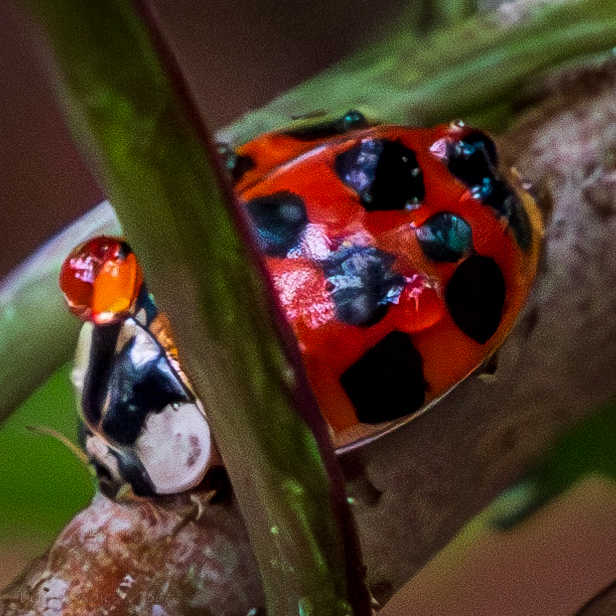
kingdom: Animalia
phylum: Arthropoda
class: Insecta
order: Coleoptera
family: Coccinellidae
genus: Harmonia
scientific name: Harmonia axyridis
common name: Harlequin ladybird
